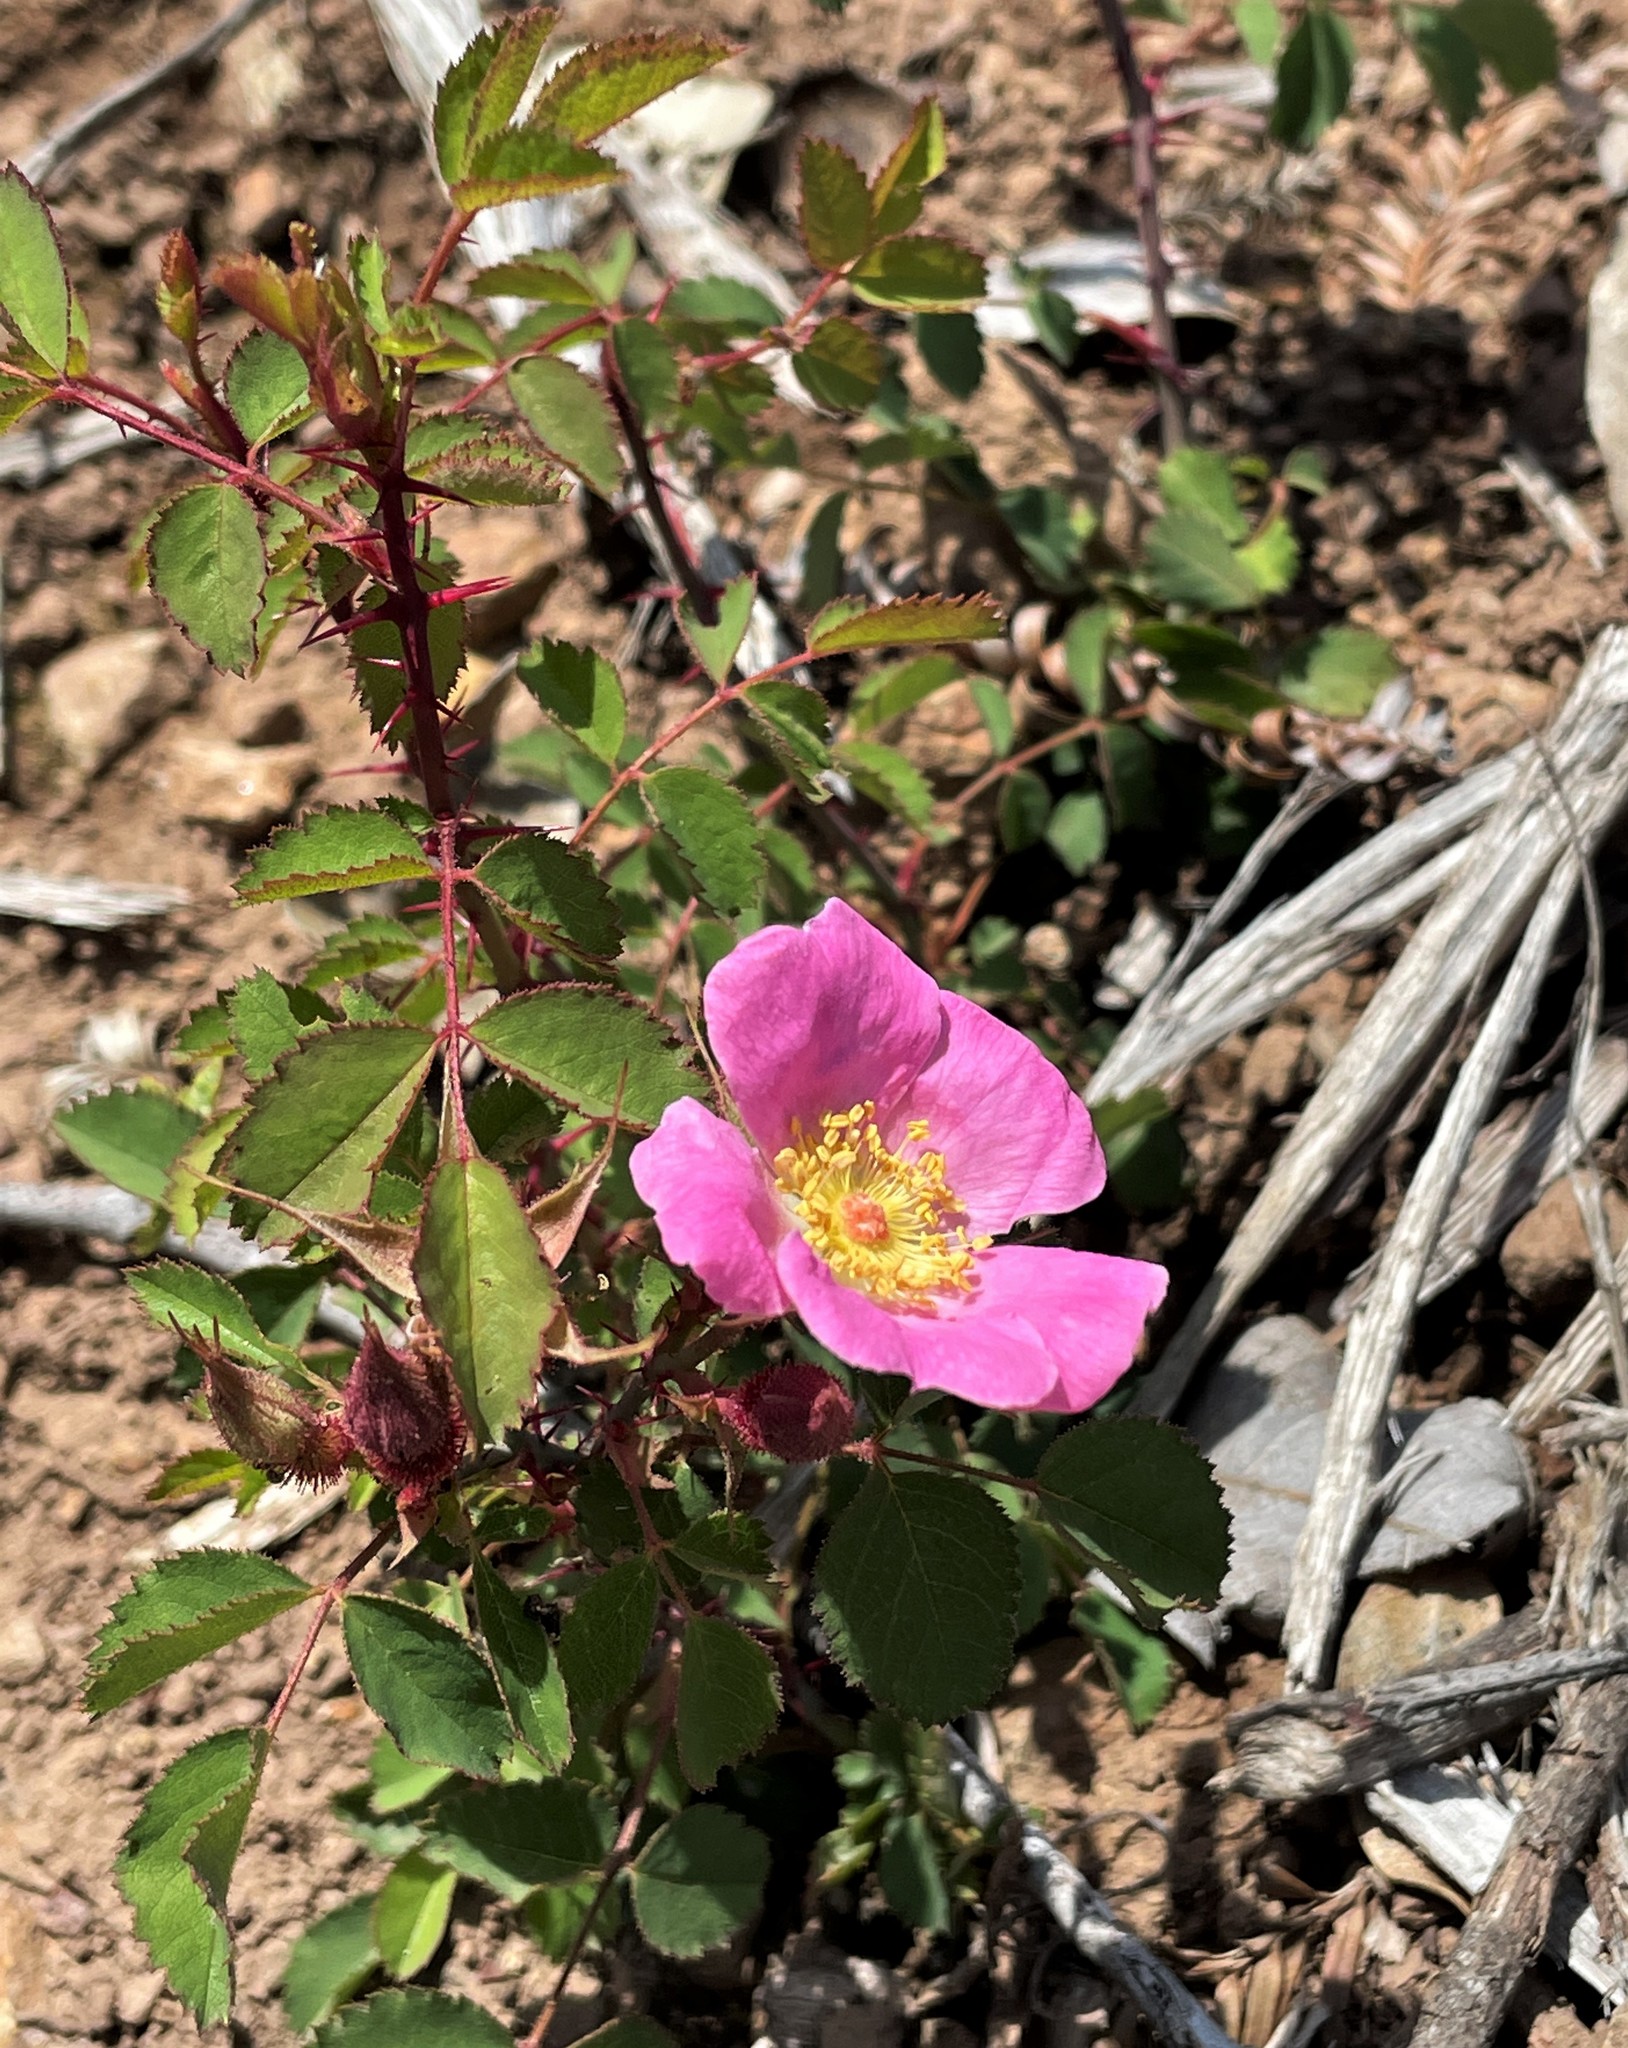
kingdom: Plantae
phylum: Tracheophyta
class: Magnoliopsida
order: Rosales
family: Rosaceae
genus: Rosa
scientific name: Rosa spithamea
